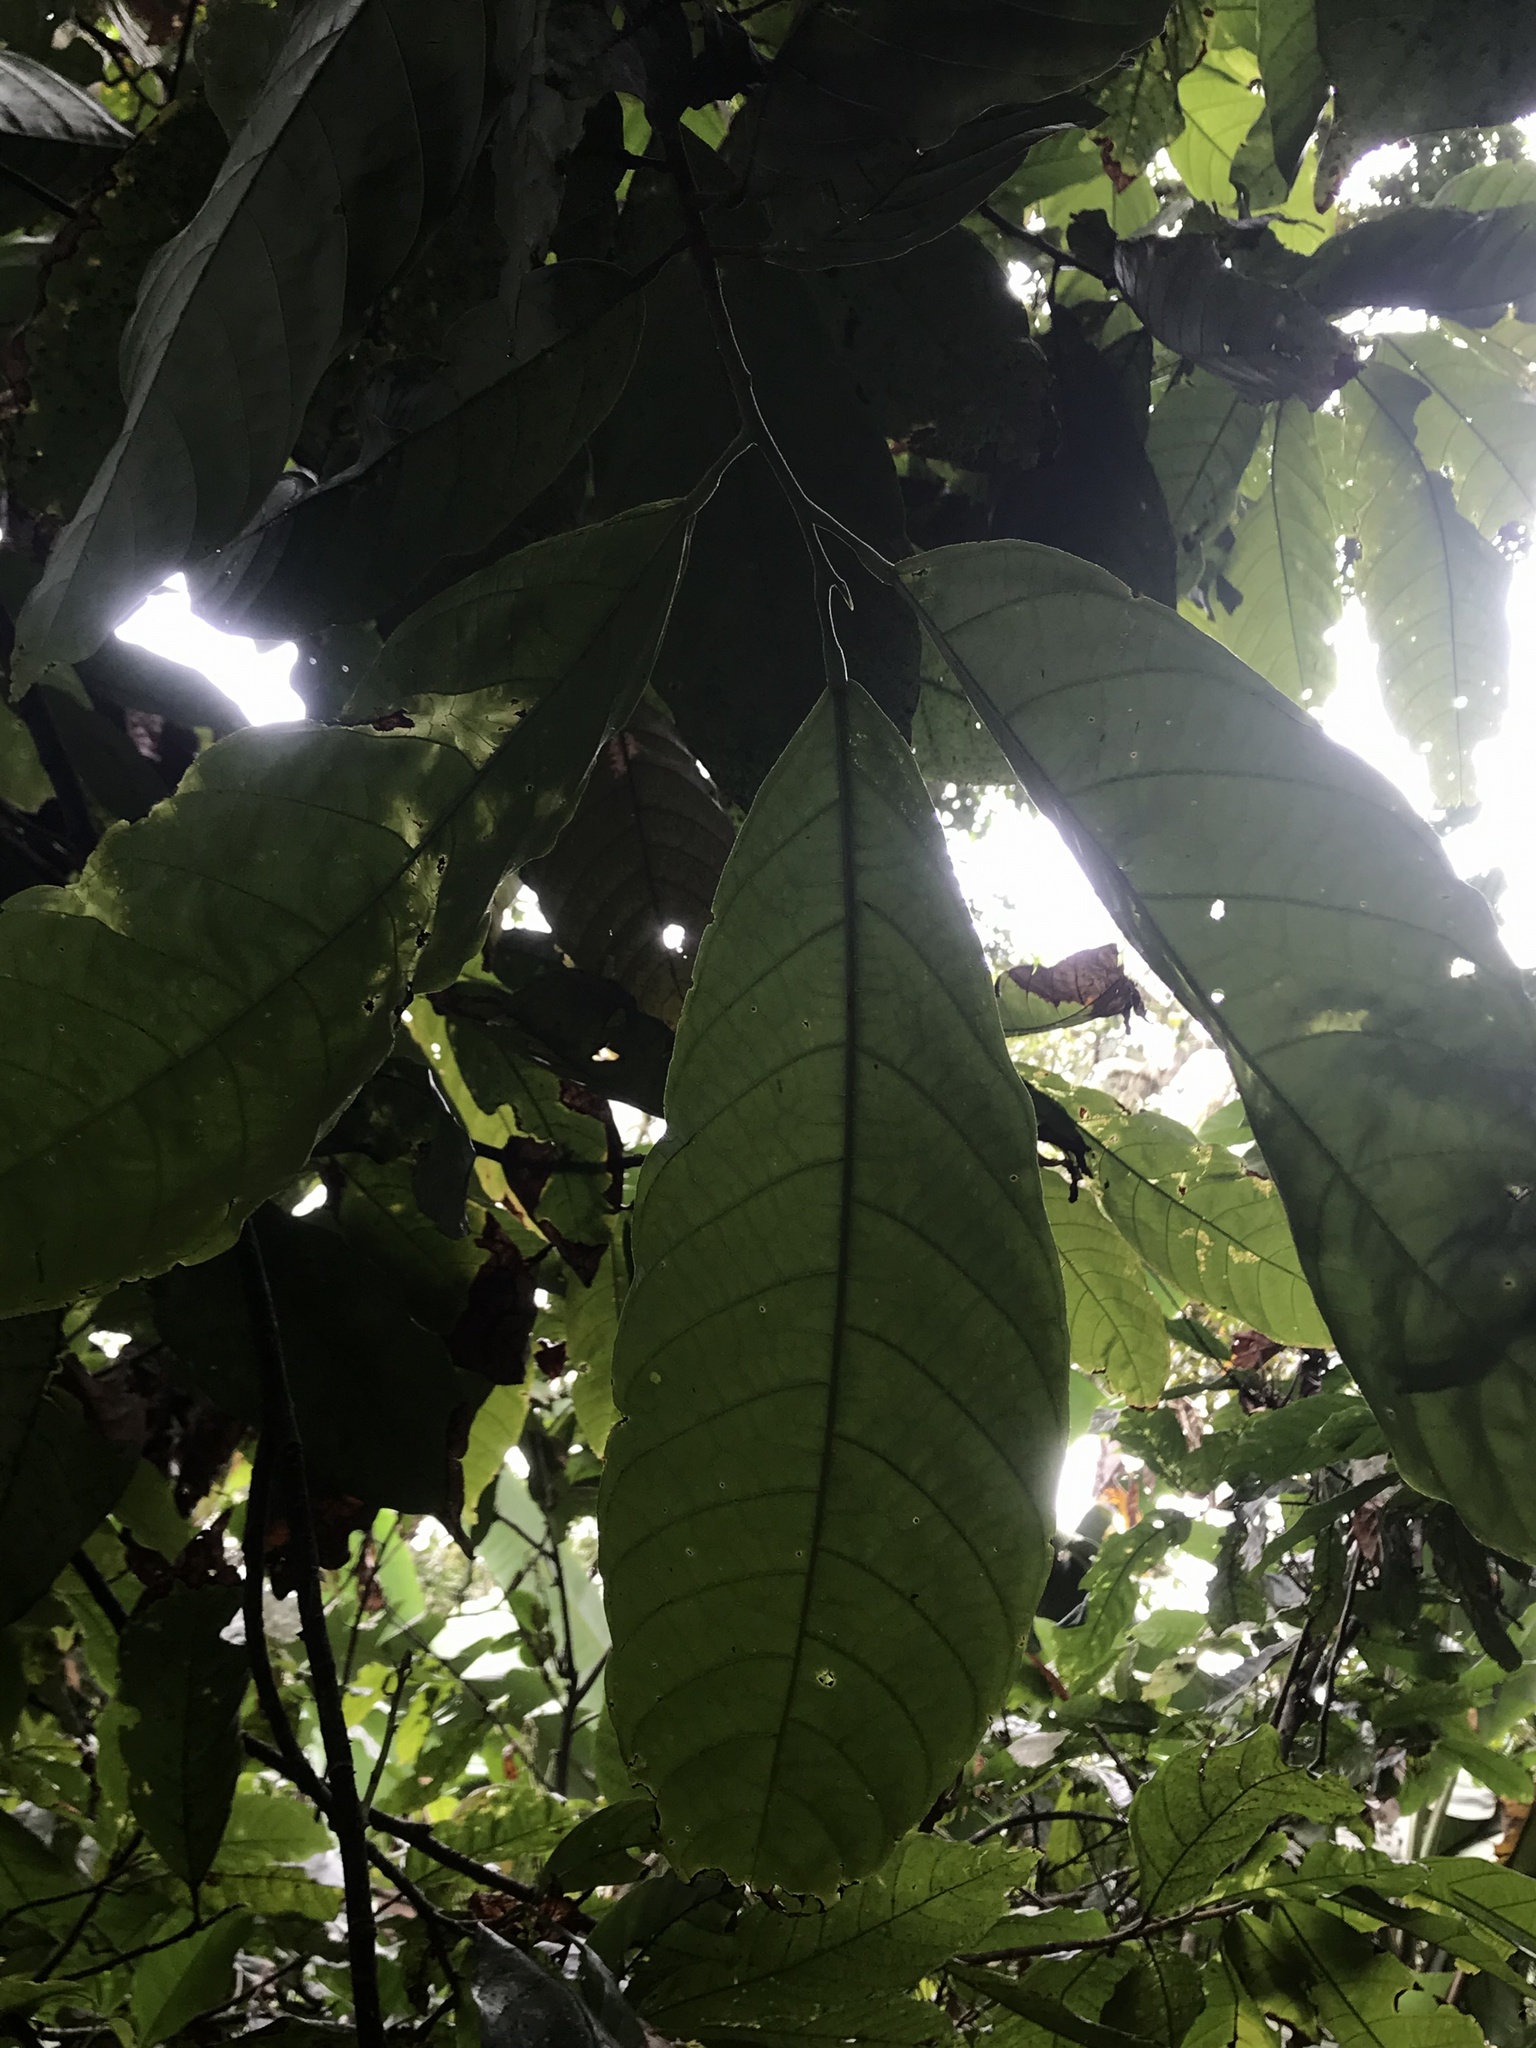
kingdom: Plantae
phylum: Tracheophyta
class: Magnoliopsida
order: Malvales
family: Malvaceae
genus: Theobroma
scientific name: Theobroma cacao
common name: Cocoa
